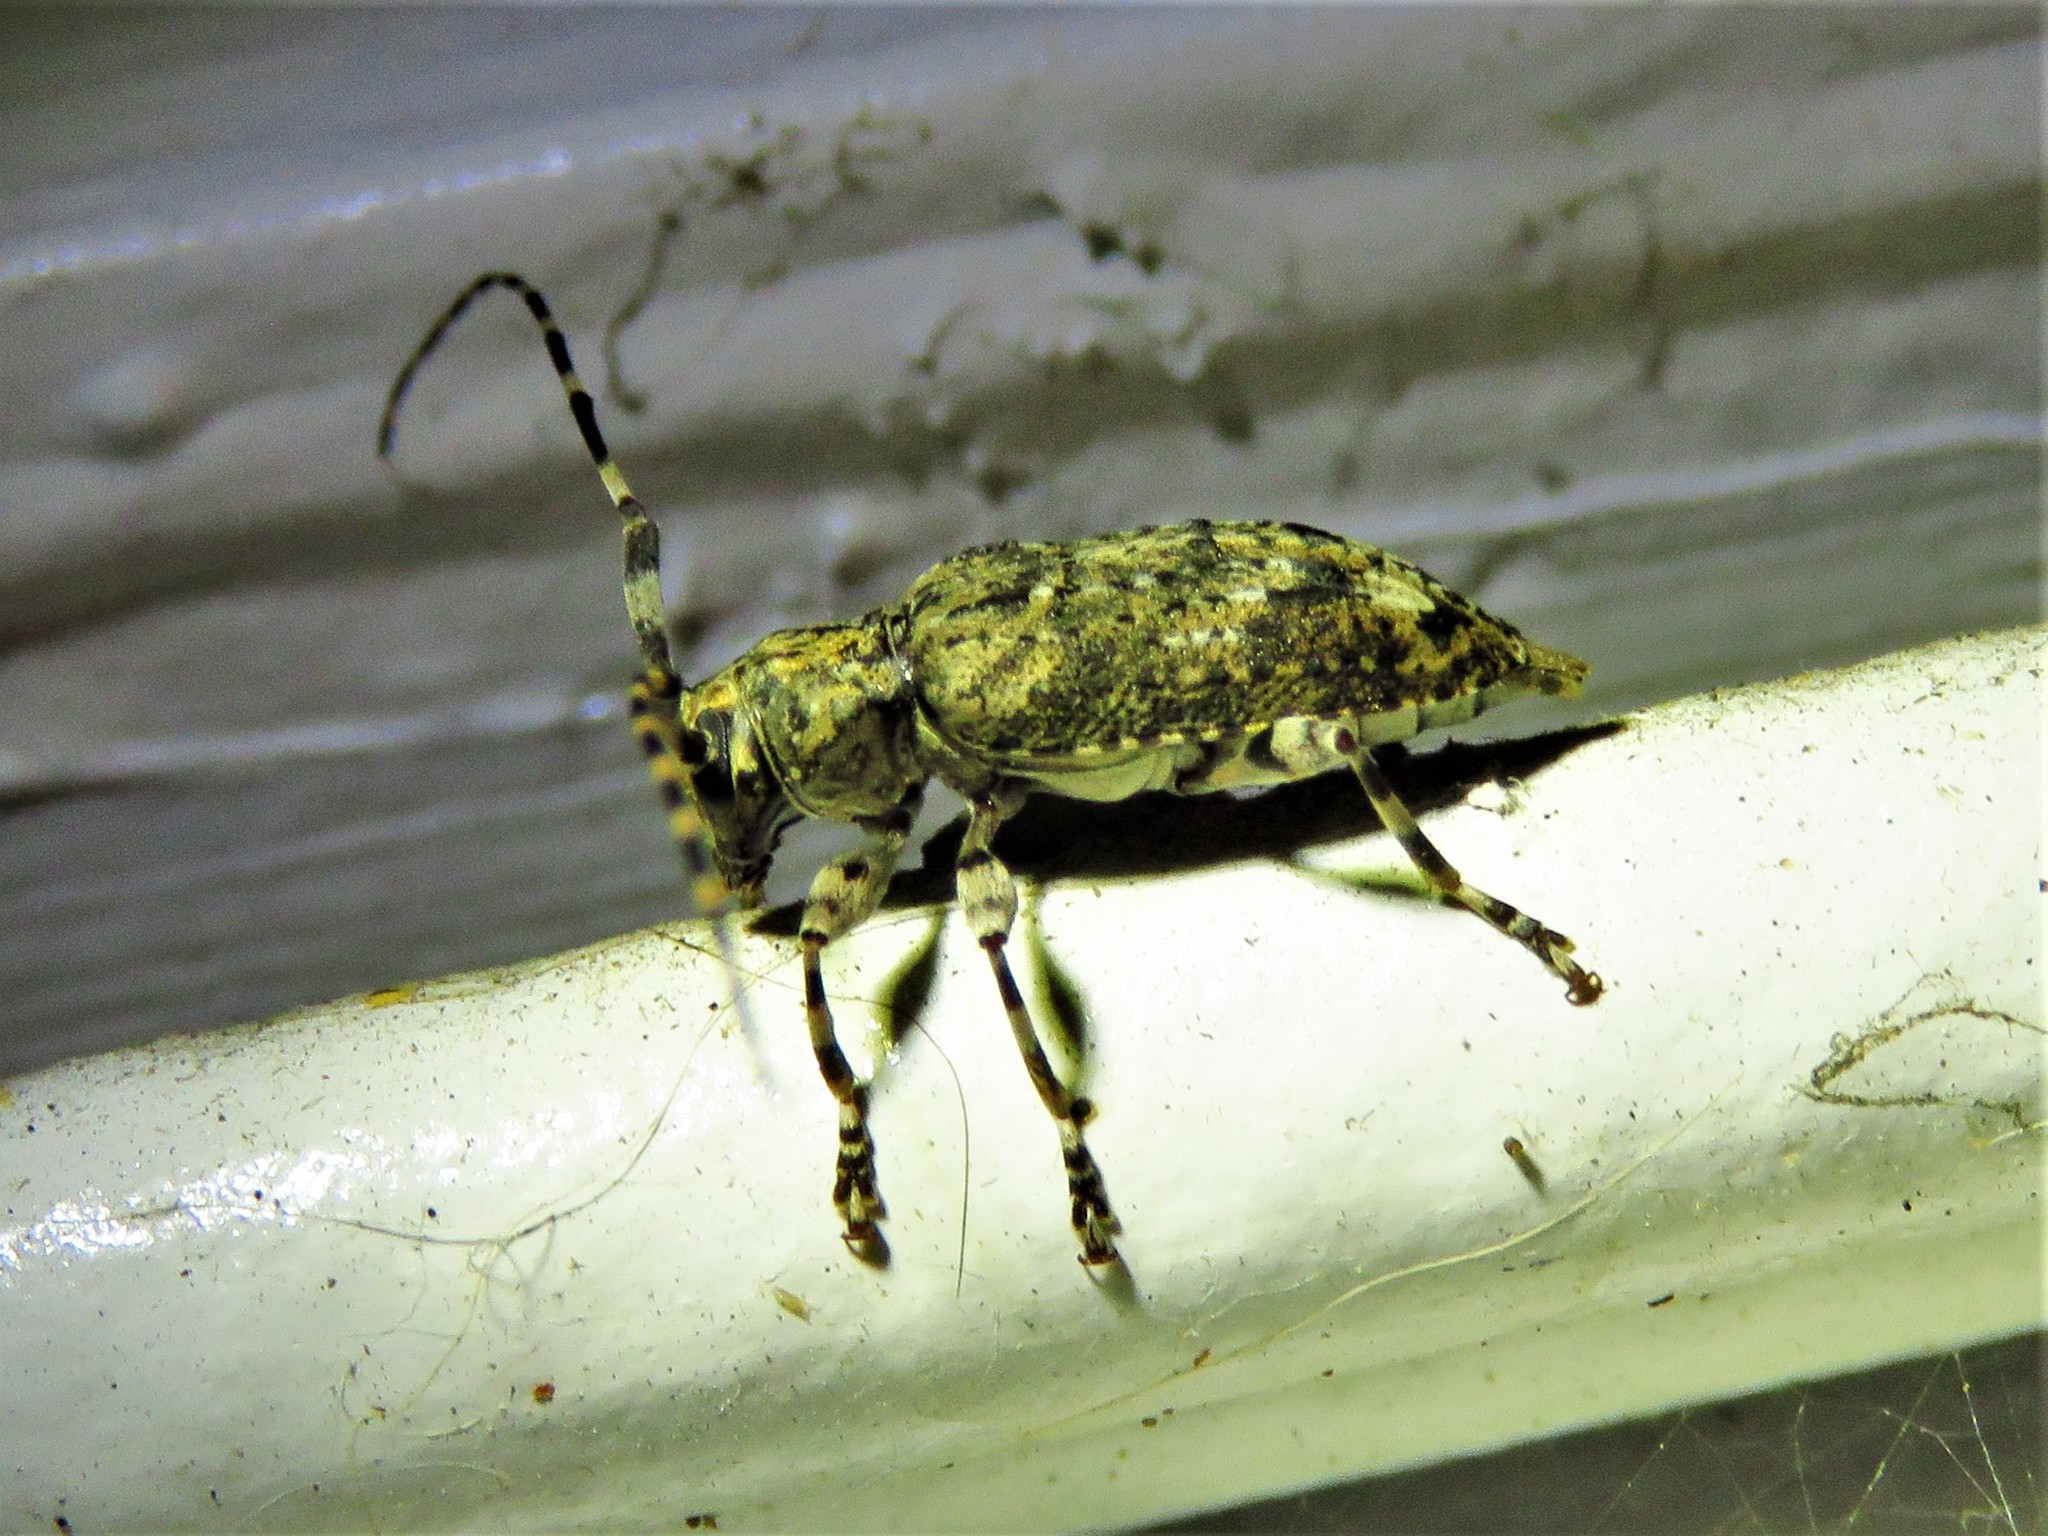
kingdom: Animalia
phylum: Arthropoda
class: Insecta
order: Coleoptera
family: Cerambycidae
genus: Astyleiopus
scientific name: Astyleiopus variegatus
